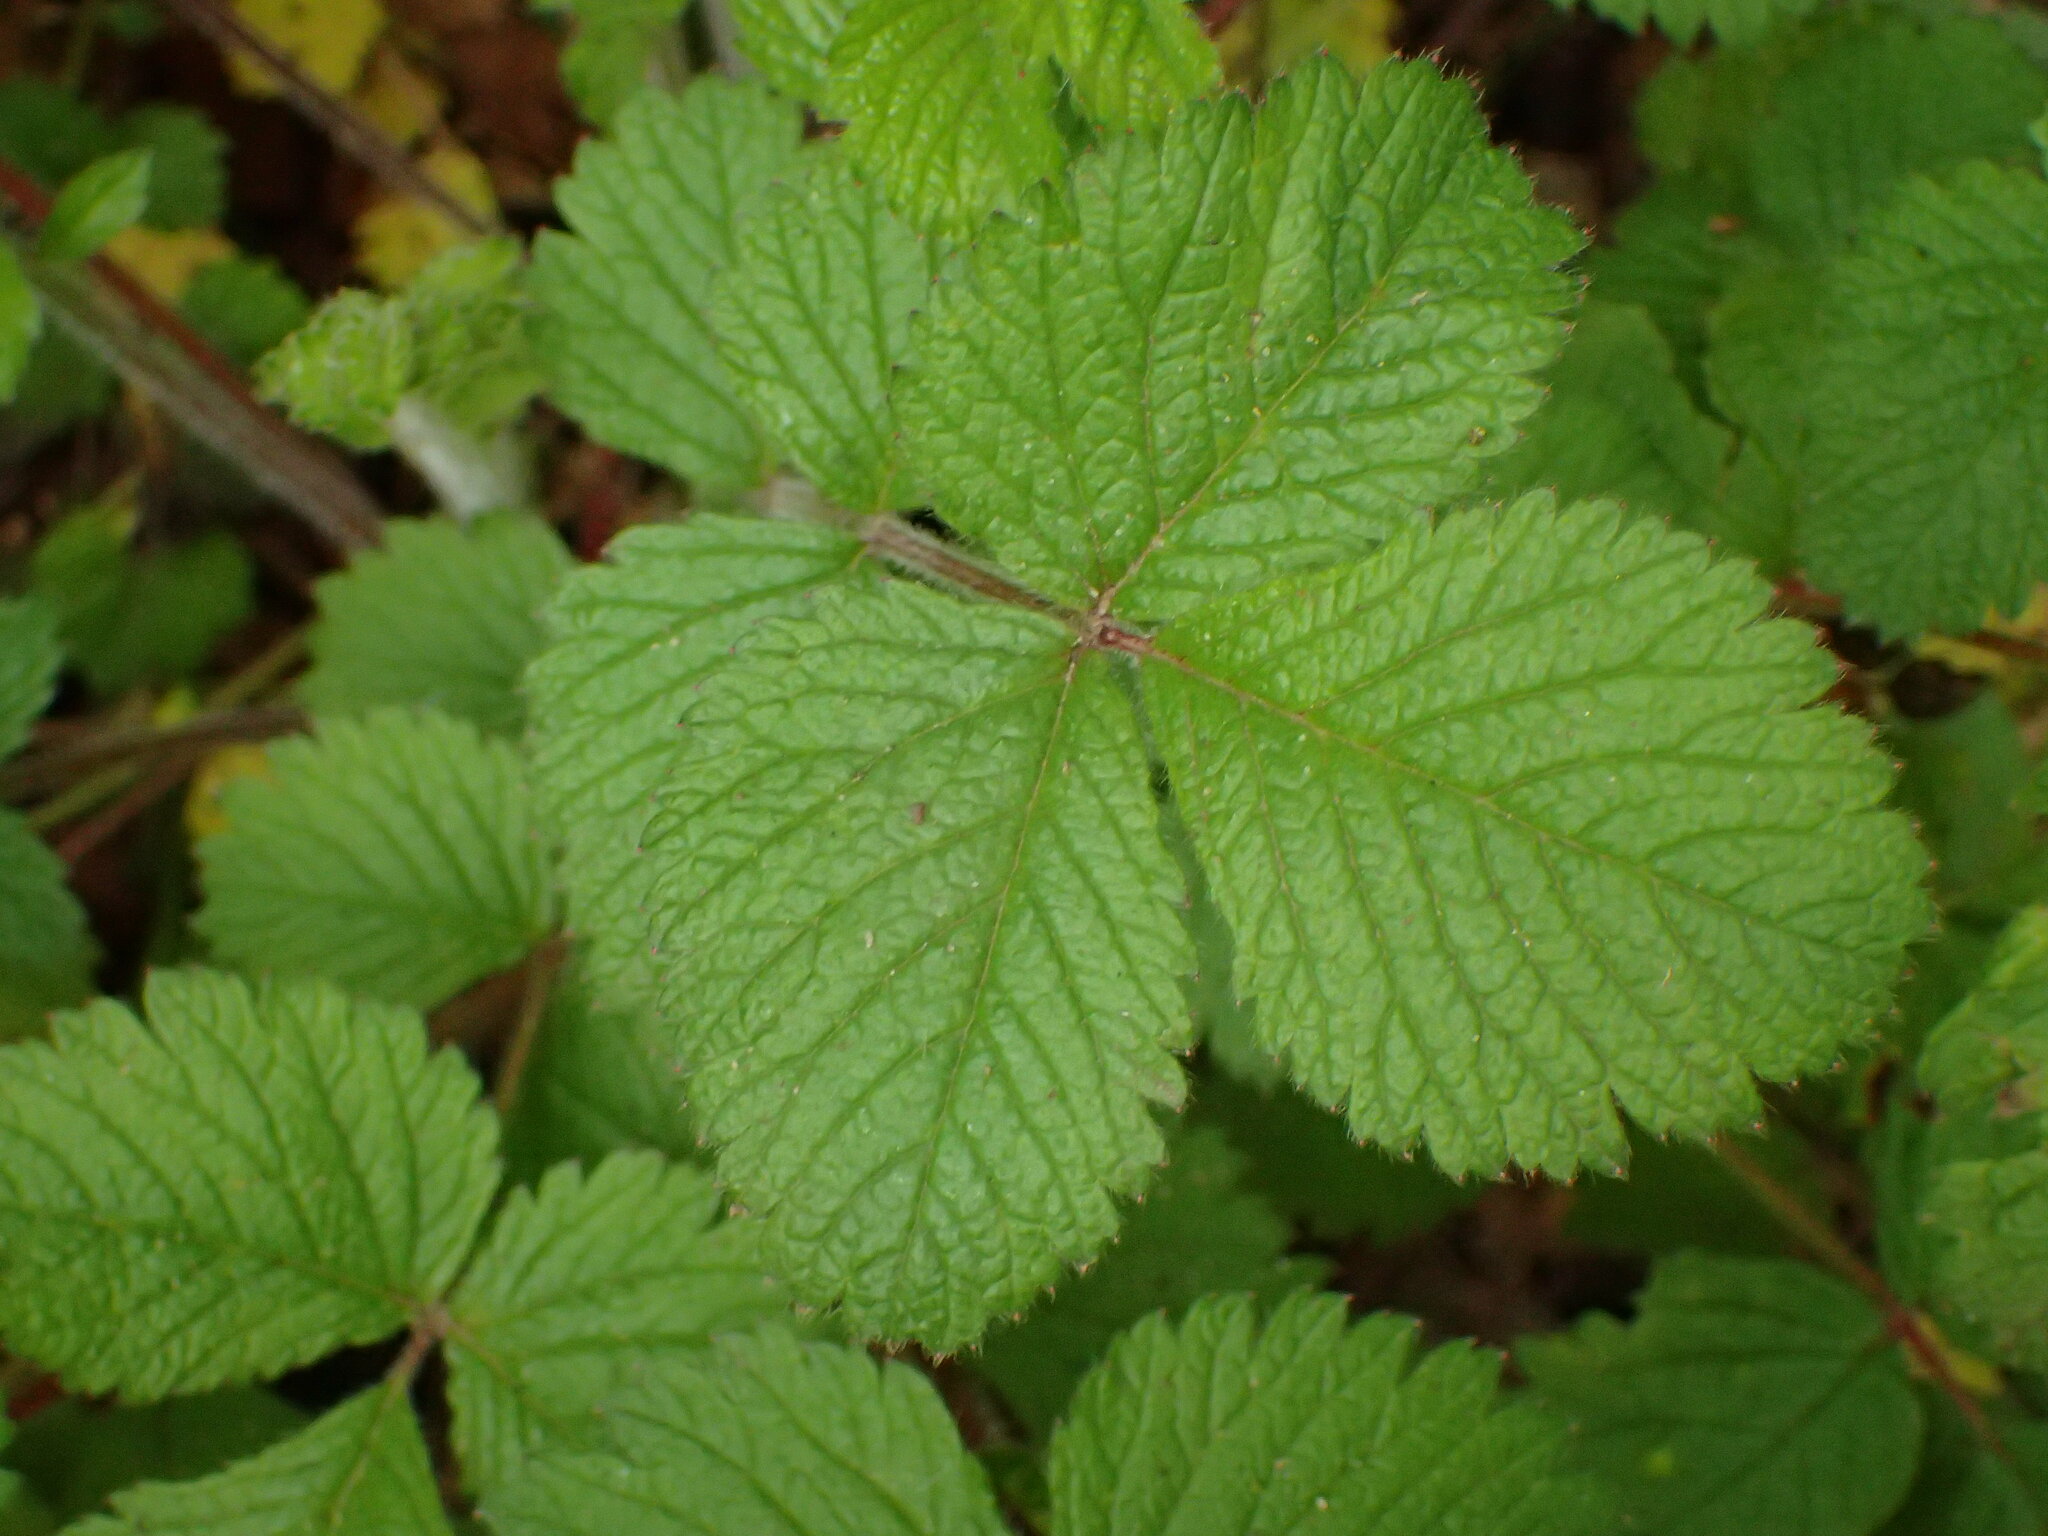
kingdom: Plantae
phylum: Tracheophyta
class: Magnoliopsida
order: Rosales
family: Rosaceae
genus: Drymocallis
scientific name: Drymocallis glandulosa
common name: Sticky cinquefoil
